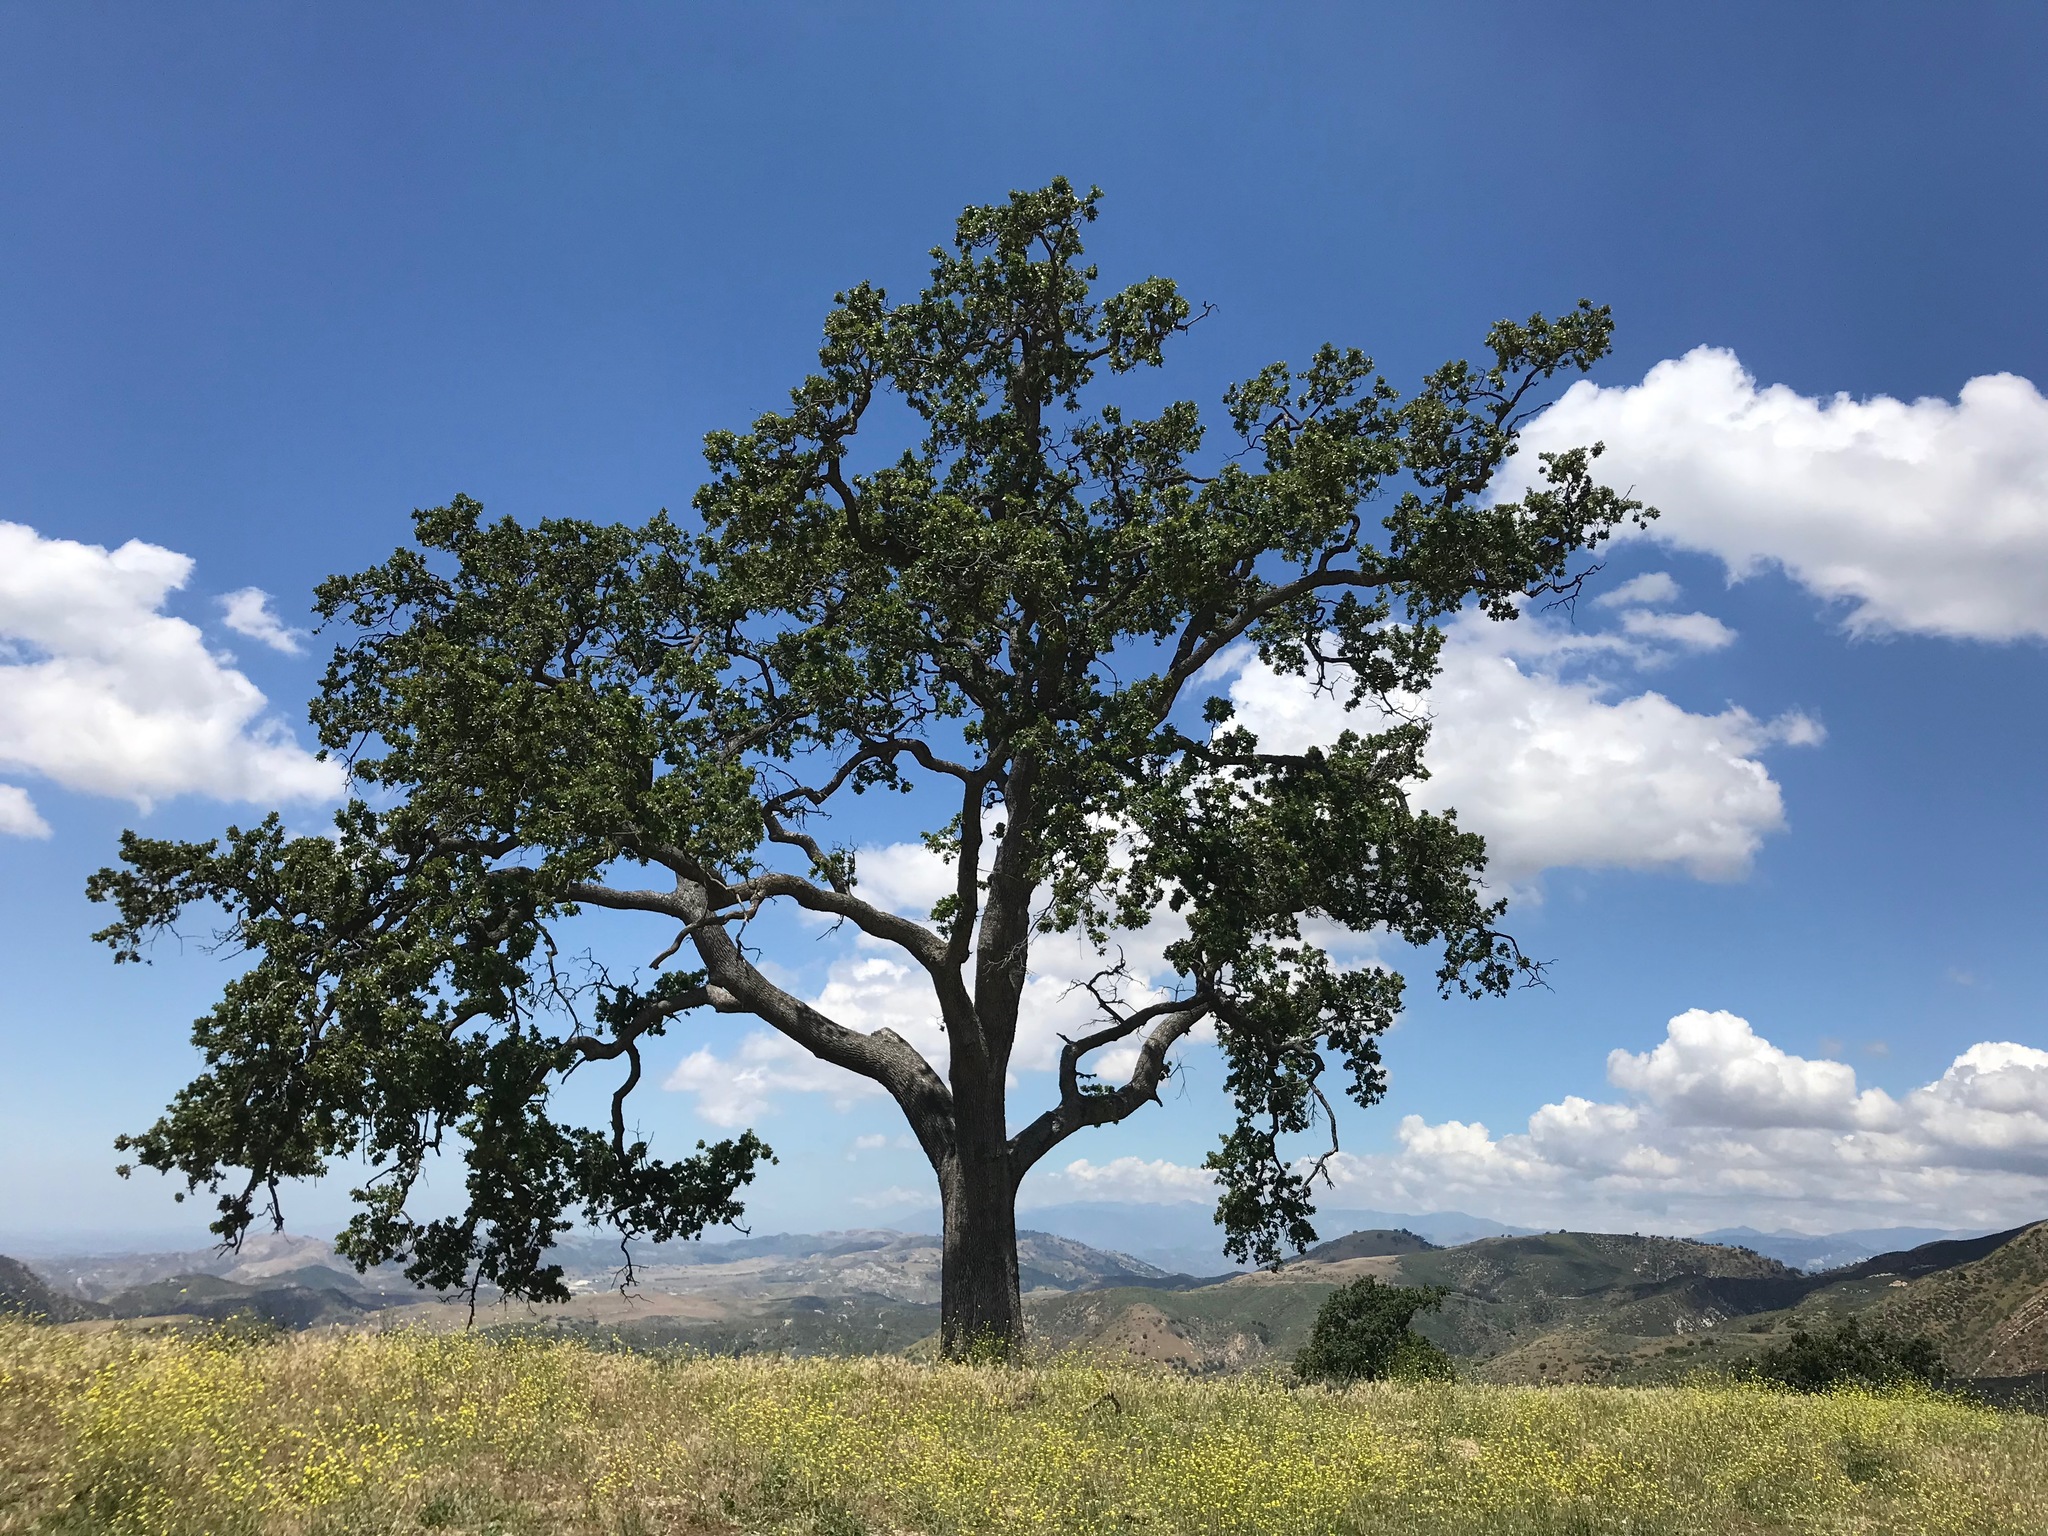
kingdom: Plantae
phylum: Tracheophyta
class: Magnoliopsida
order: Fagales
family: Fagaceae
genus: Quercus
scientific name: Quercus lobata
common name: Valley oak
